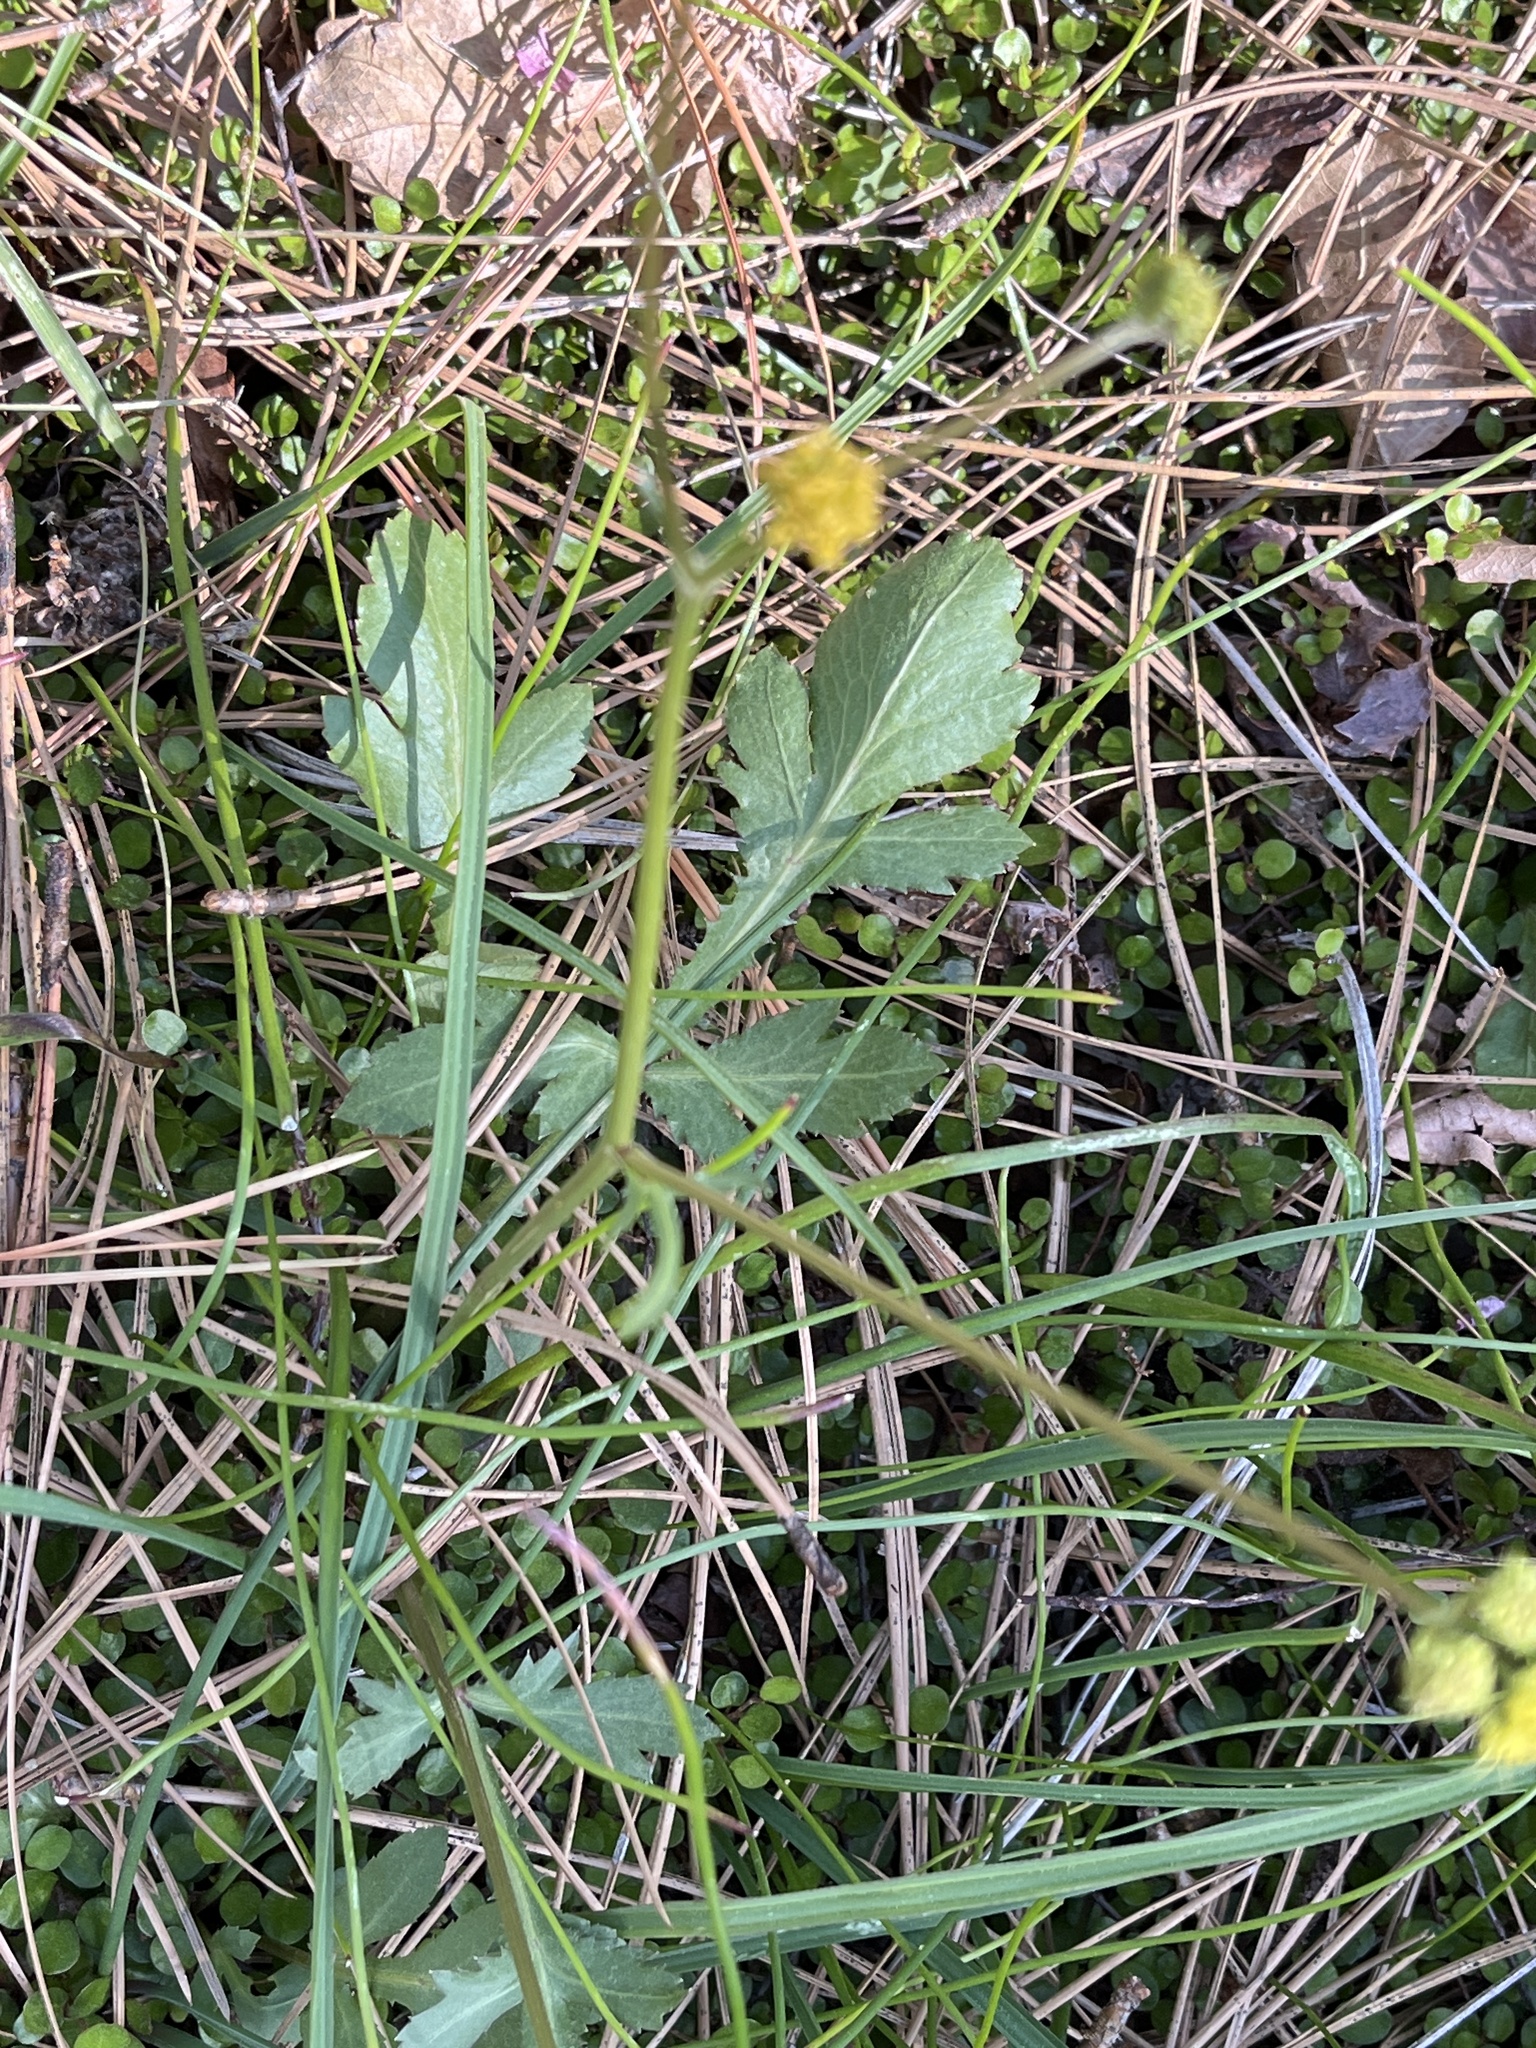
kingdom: Plantae
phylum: Tracheophyta
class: Magnoliopsida
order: Apiales
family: Apiaceae
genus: Sanicula
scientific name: Sanicula crassicaulis
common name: Western snakeroot
